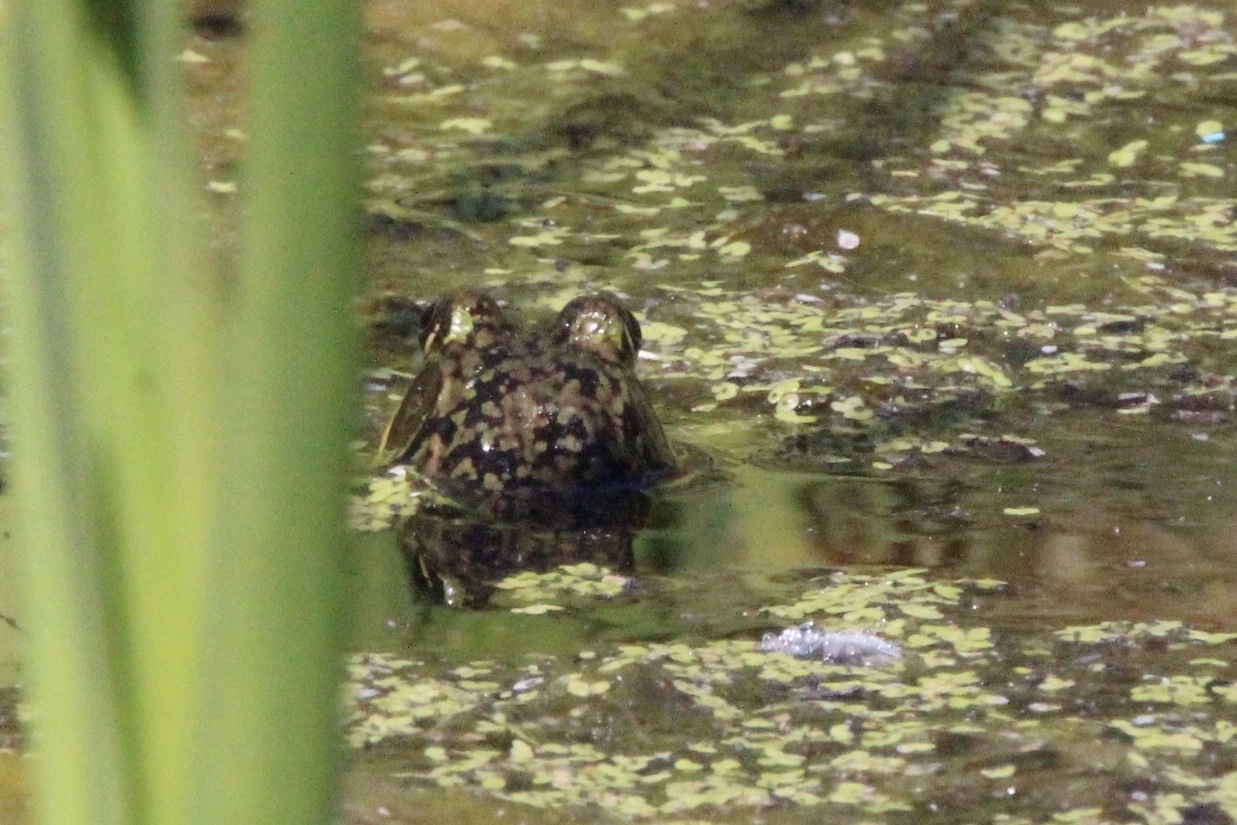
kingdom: Animalia
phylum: Chordata
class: Amphibia
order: Anura
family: Ranidae
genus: Lithobates
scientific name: Lithobates catesbeianus
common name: American bullfrog
